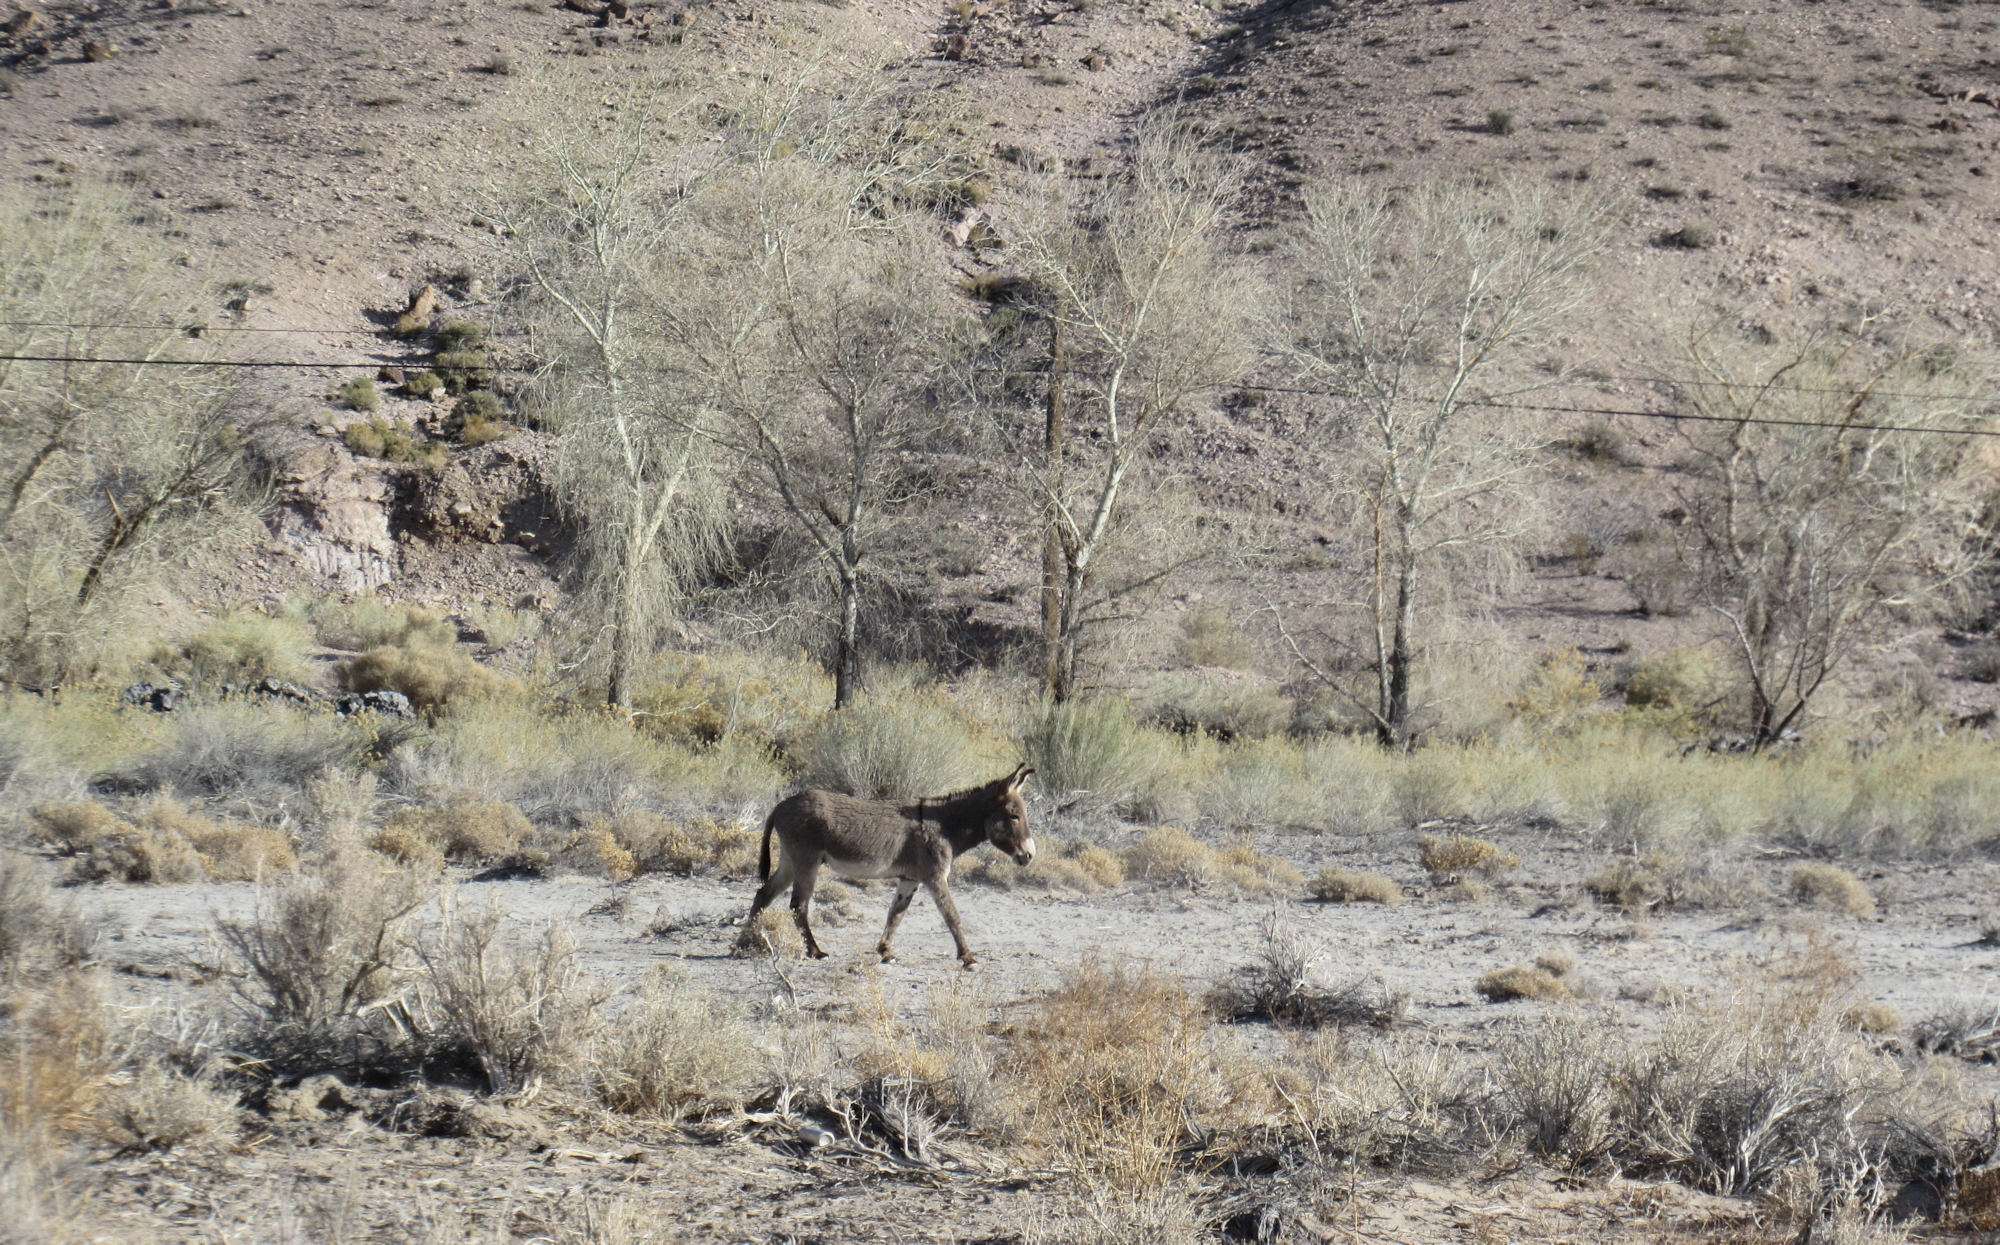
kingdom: Animalia
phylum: Chordata
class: Mammalia
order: Perissodactyla
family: Equidae
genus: Equus
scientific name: Equus asinus
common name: Ass
